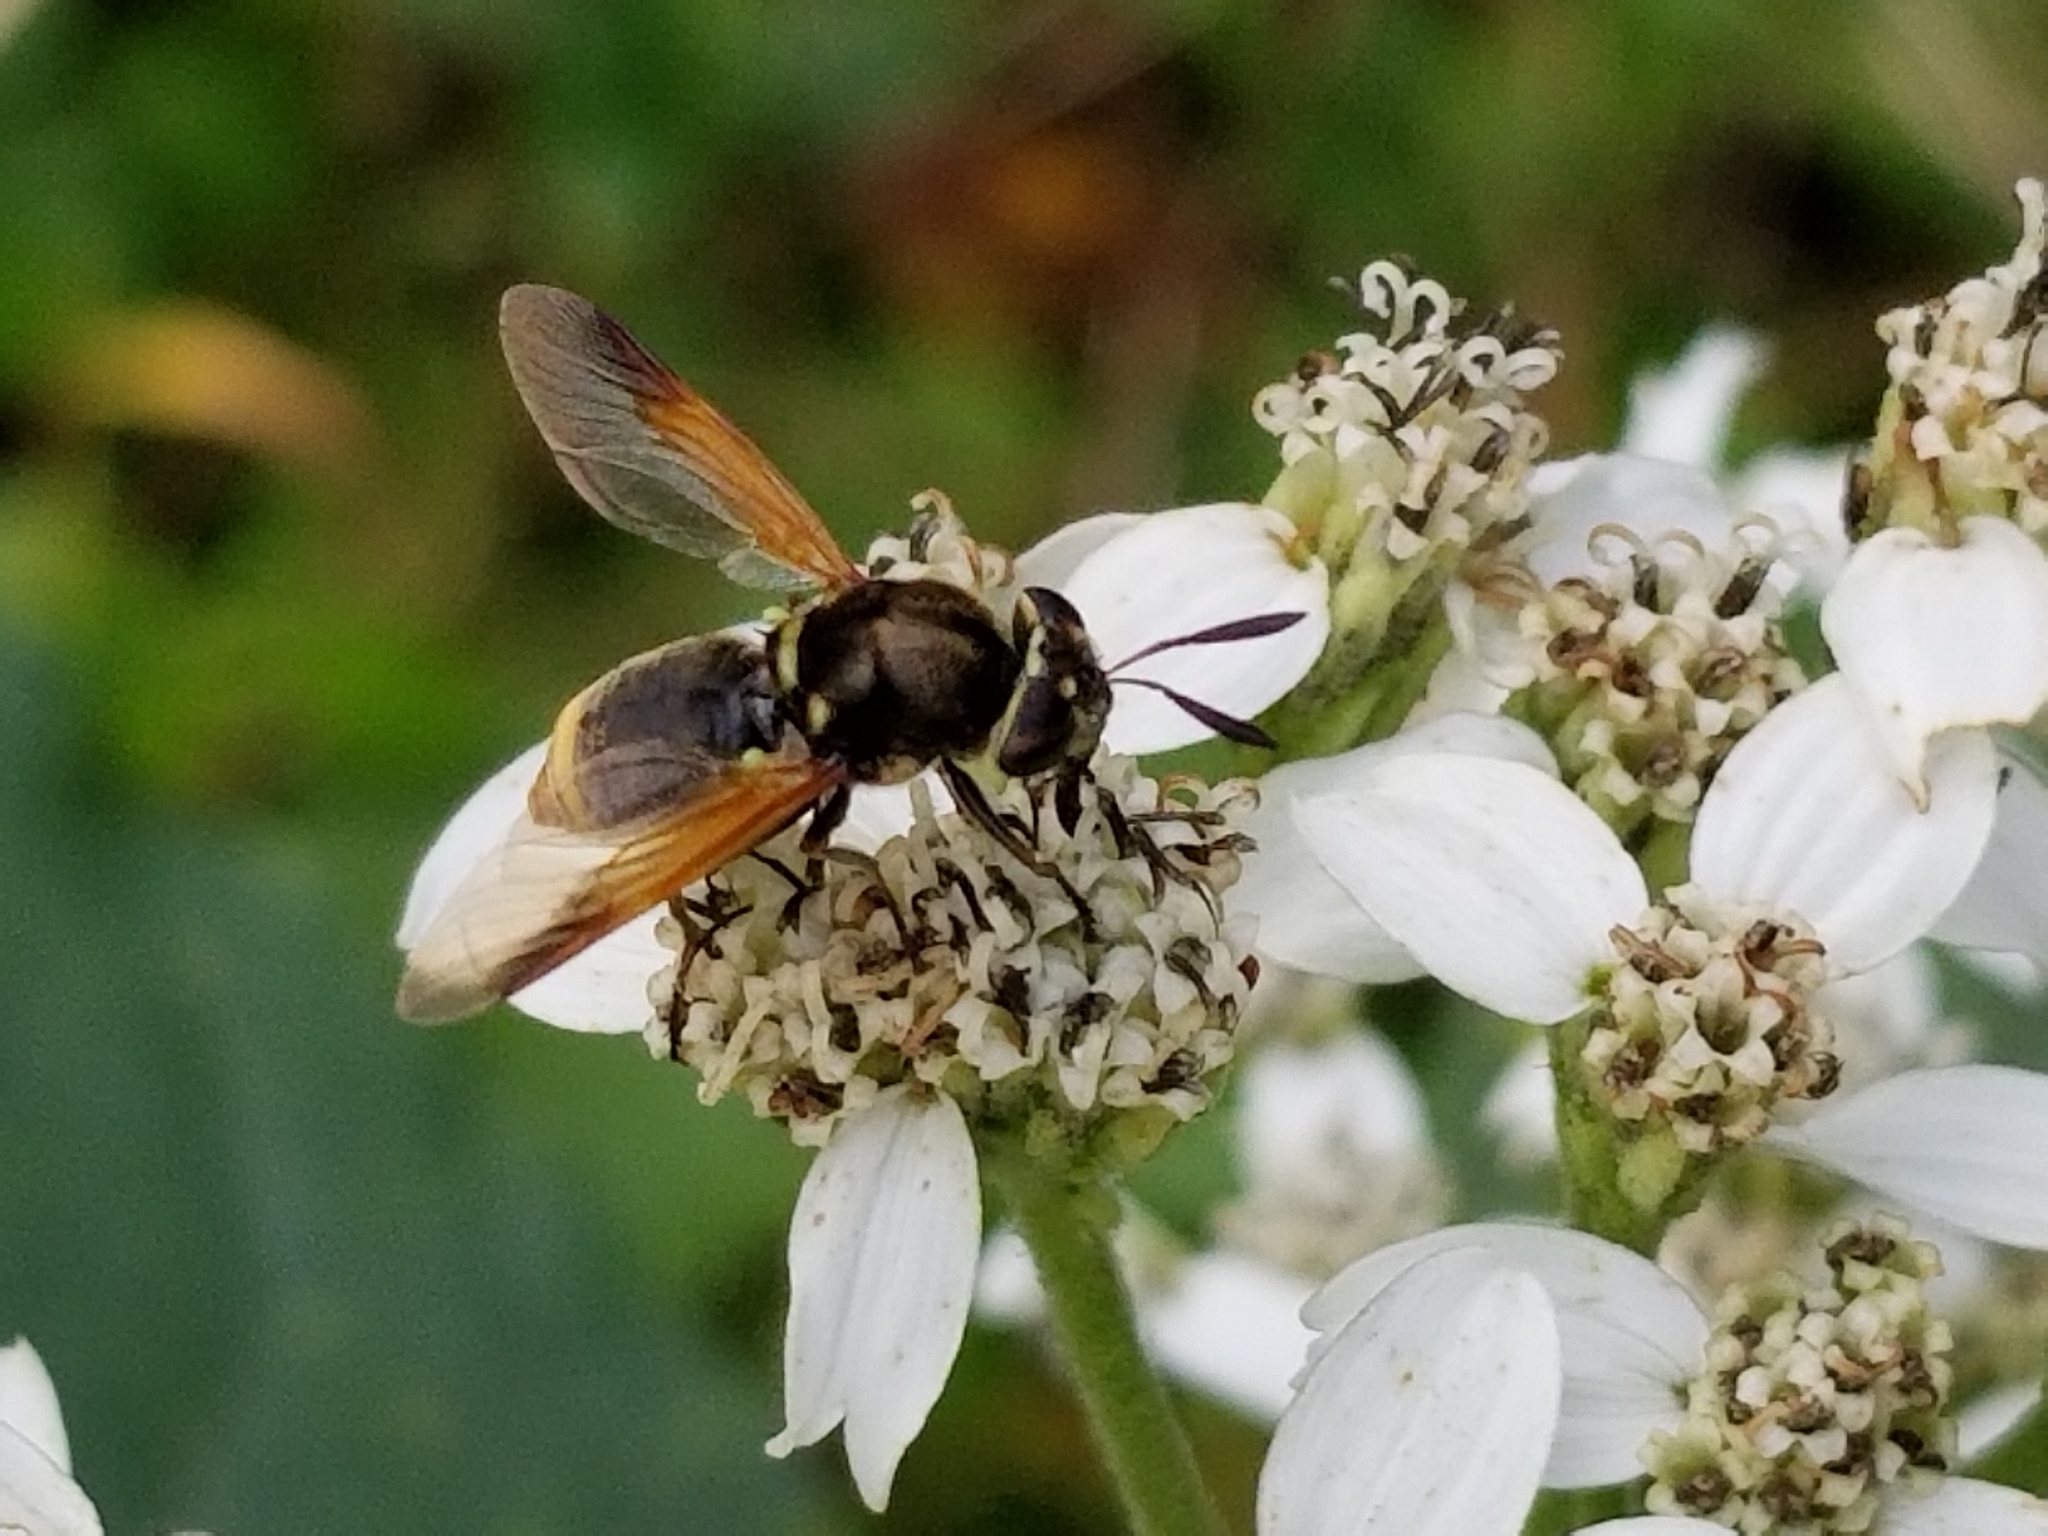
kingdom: Animalia
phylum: Arthropoda
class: Insecta
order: Diptera
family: Stratiomyidae
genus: Hoplitimyia
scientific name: Hoplitimyia mutabilis
